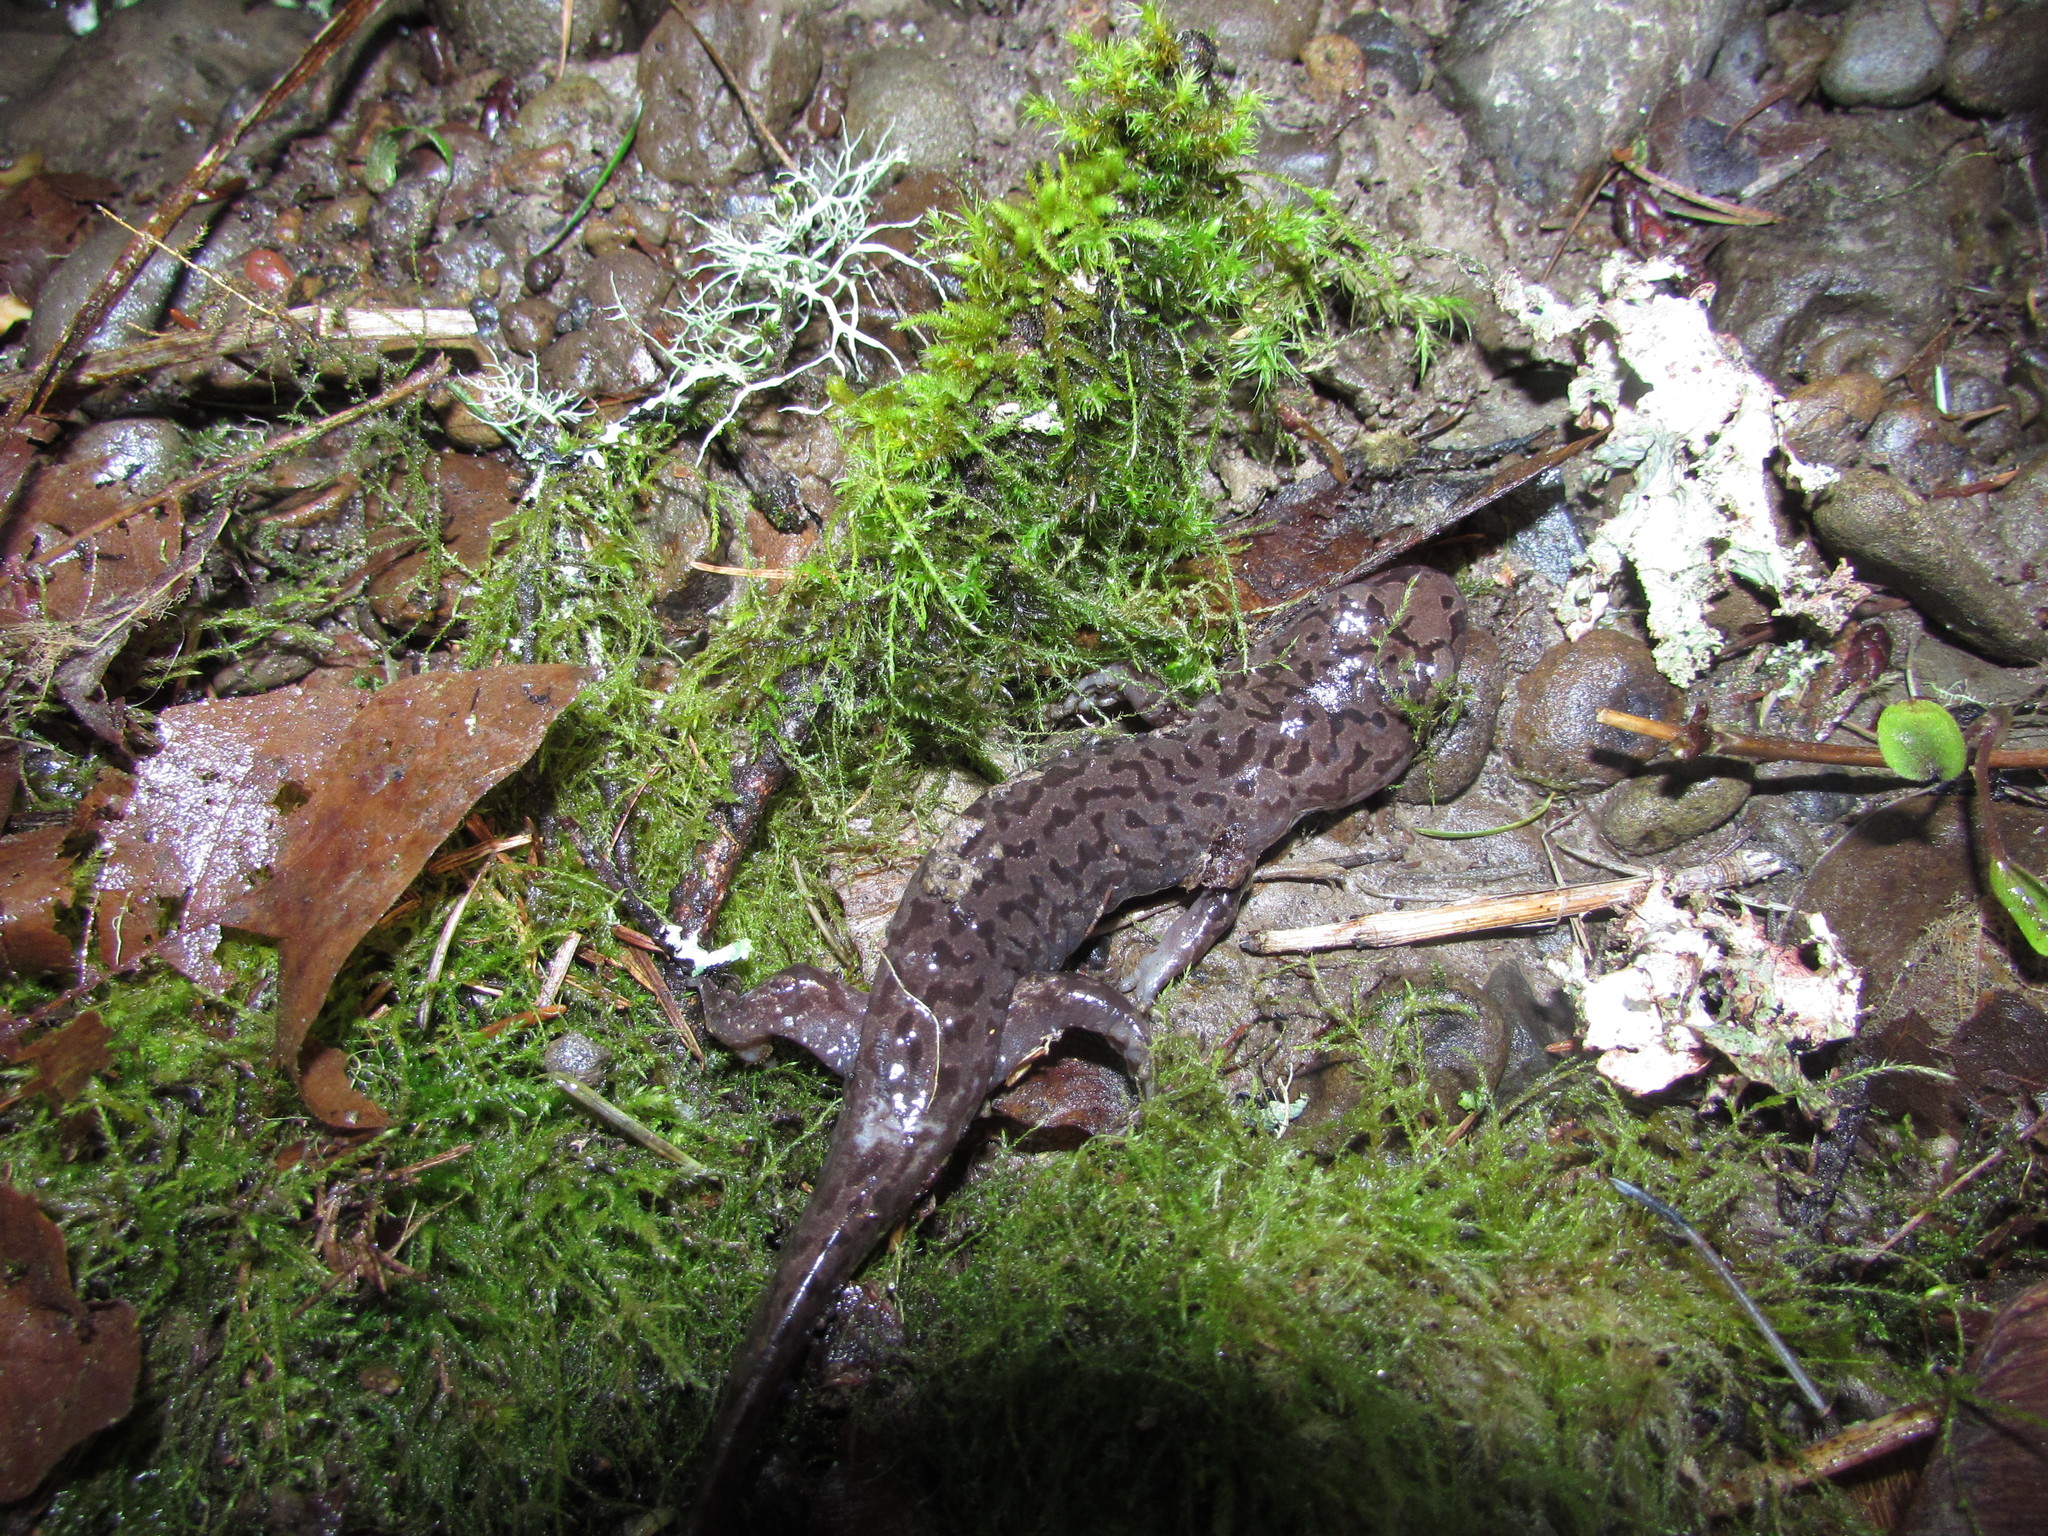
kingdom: Animalia
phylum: Chordata
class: Amphibia
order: Caudata
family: Ambystomatidae
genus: Dicamptodon
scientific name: Dicamptodon tenebrosus
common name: Coastal giant salamander
